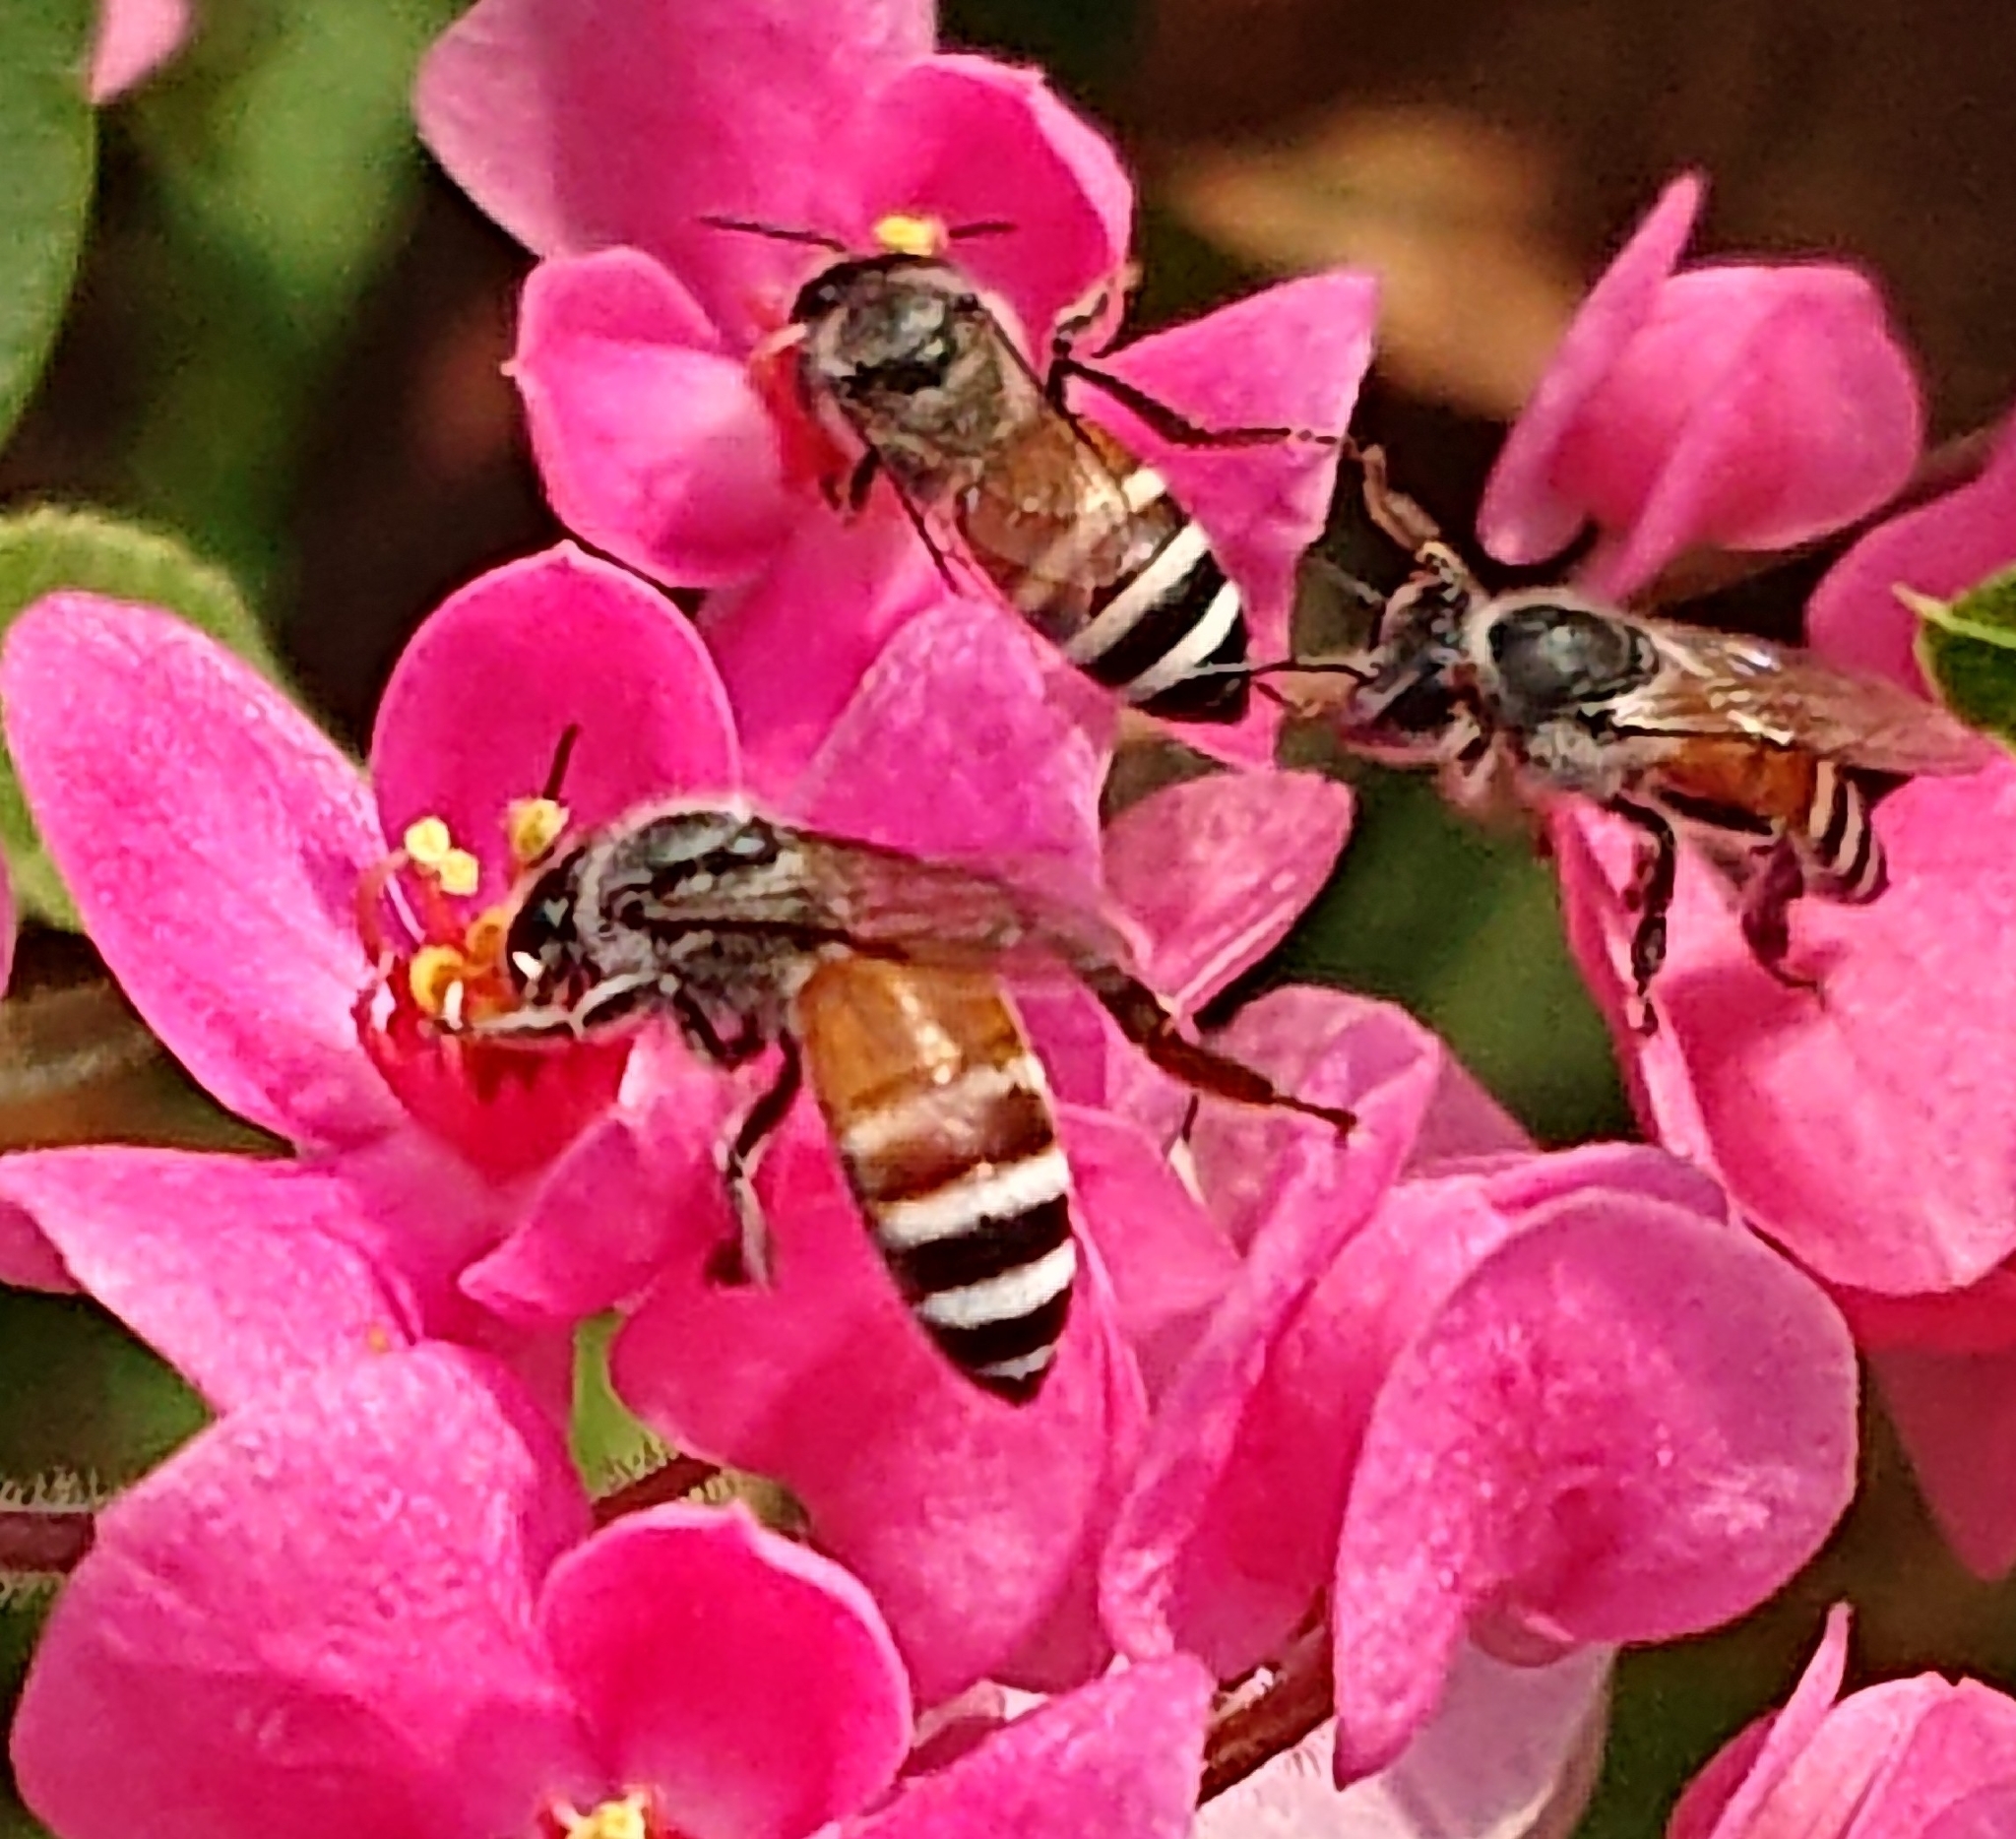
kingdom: Animalia
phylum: Arthropoda
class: Insecta
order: Hymenoptera
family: Apidae
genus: Apis
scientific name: Apis florea
